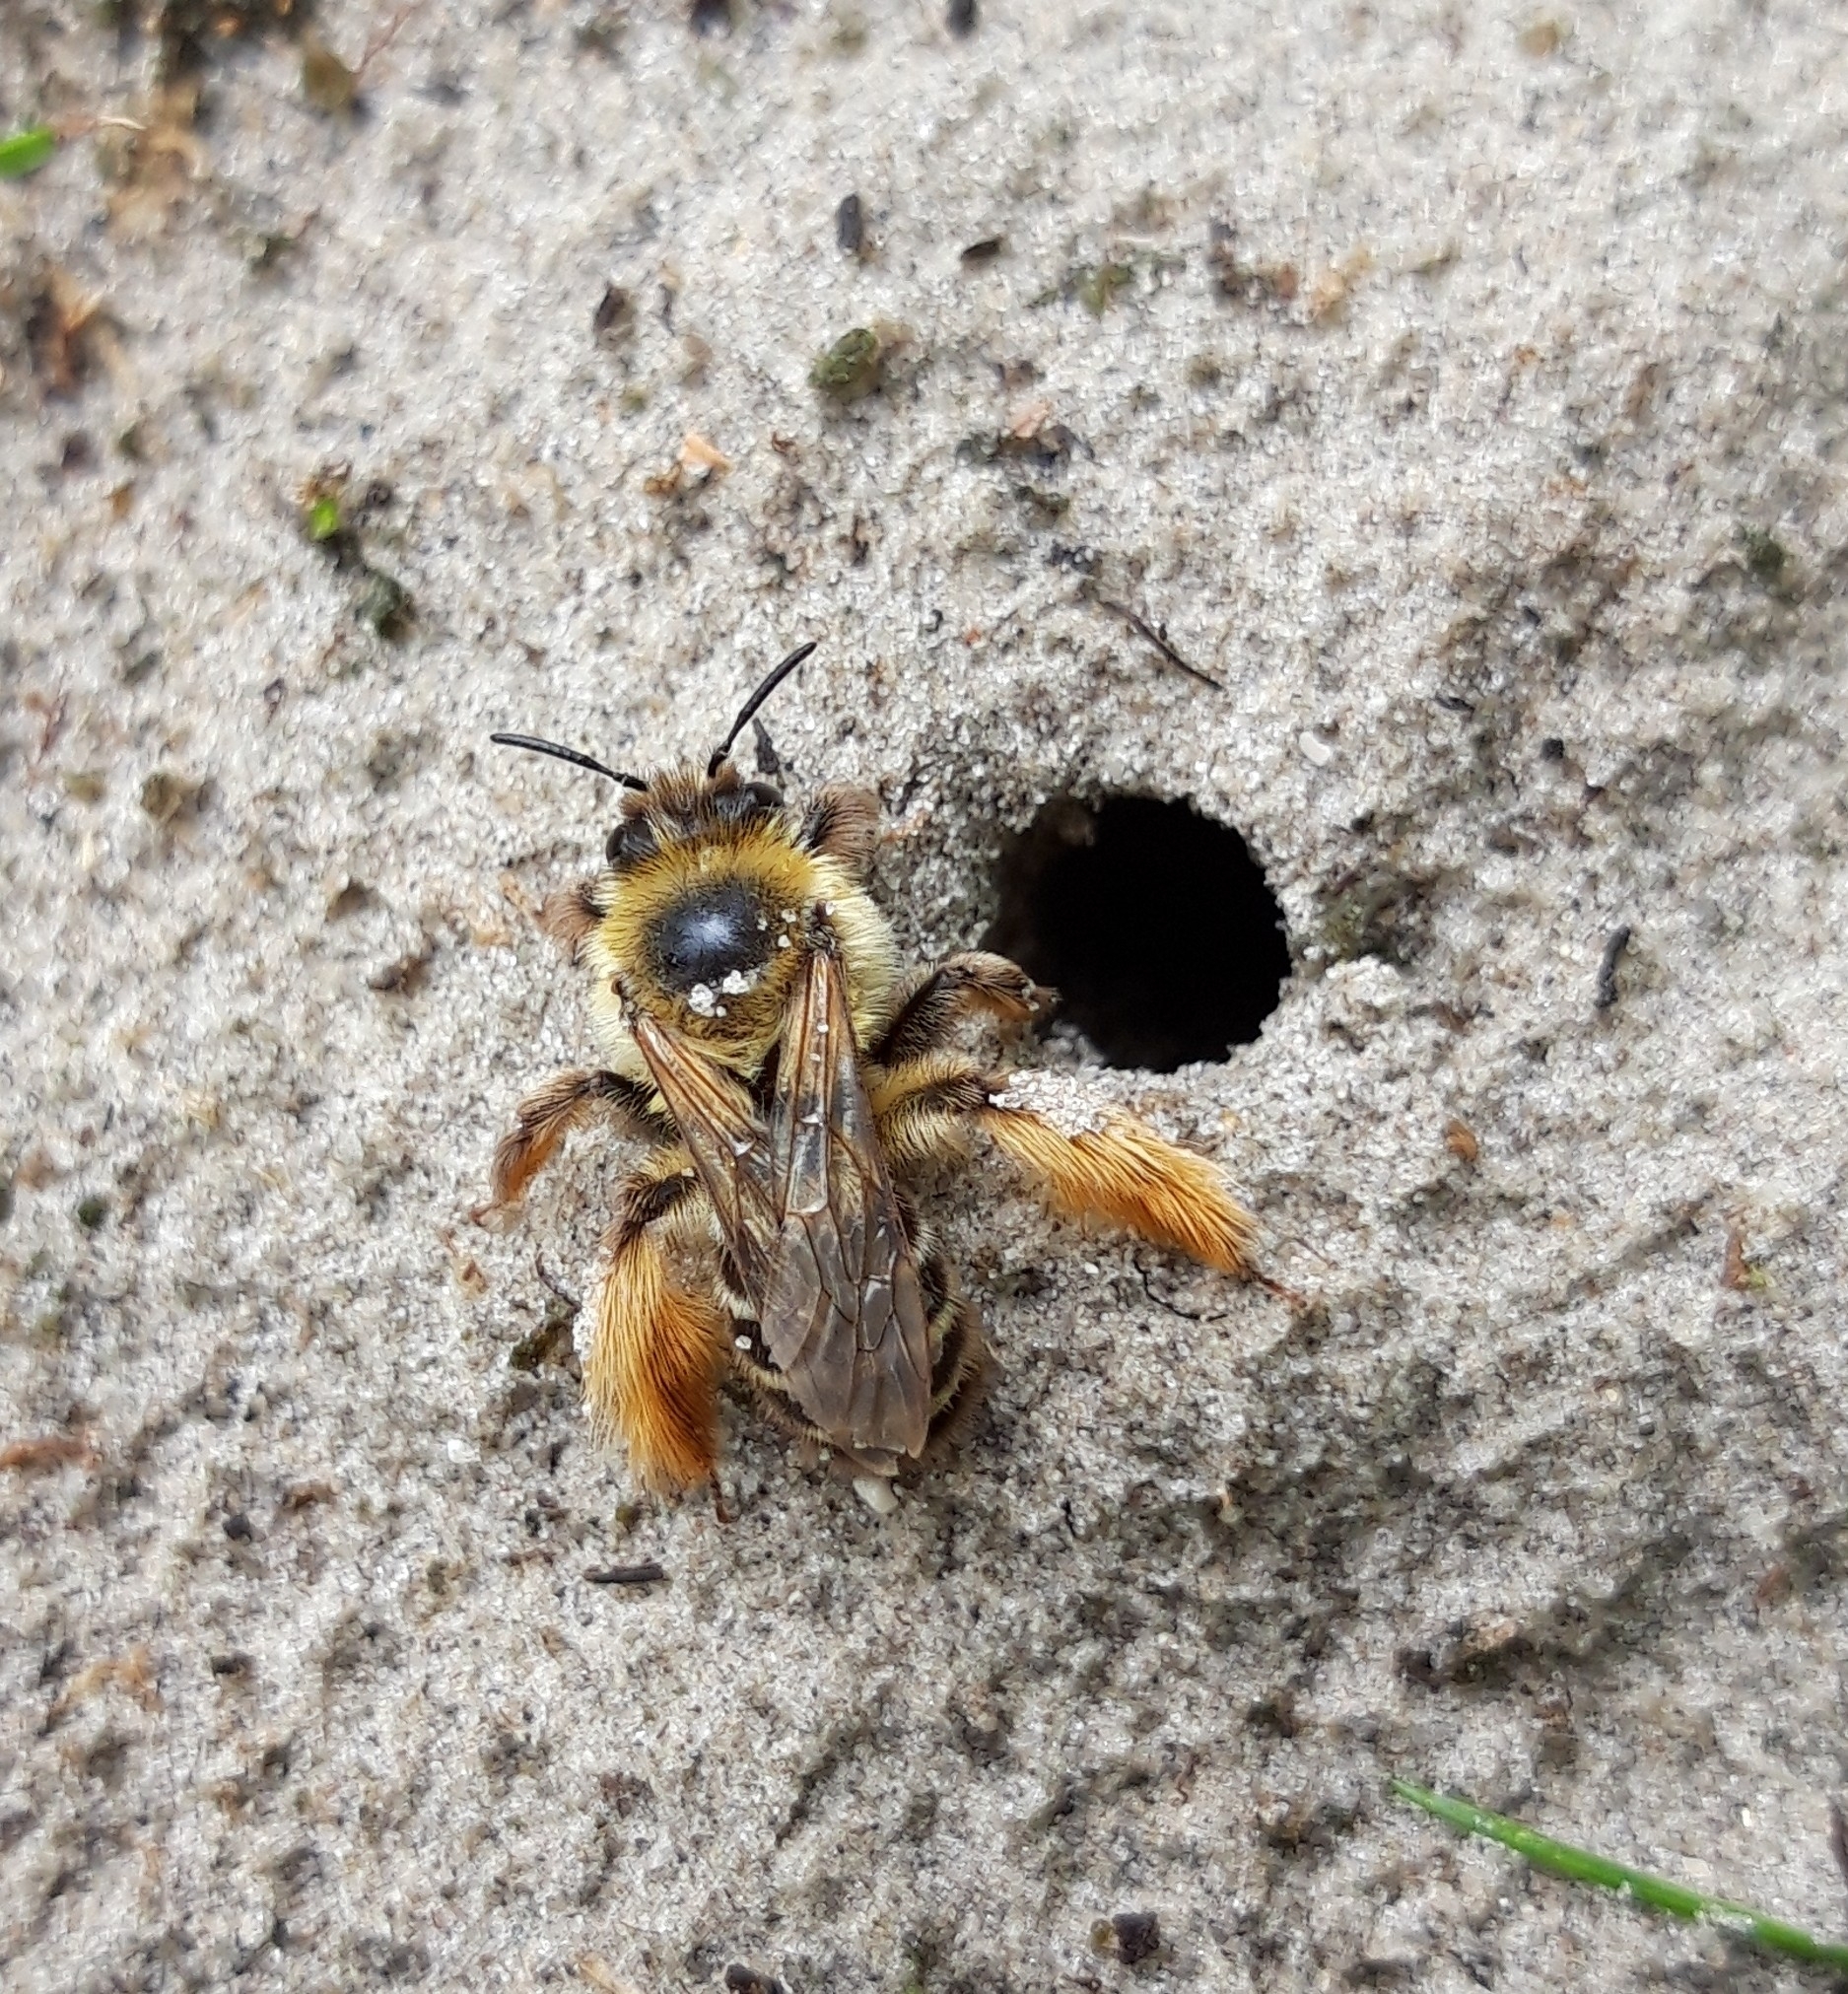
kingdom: Animalia
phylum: Arthropoda
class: Insecta
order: Hymenoptera
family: Melittidae
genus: Dasypoda
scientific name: Dasypoda hirtipes
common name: Pantaloon bee
